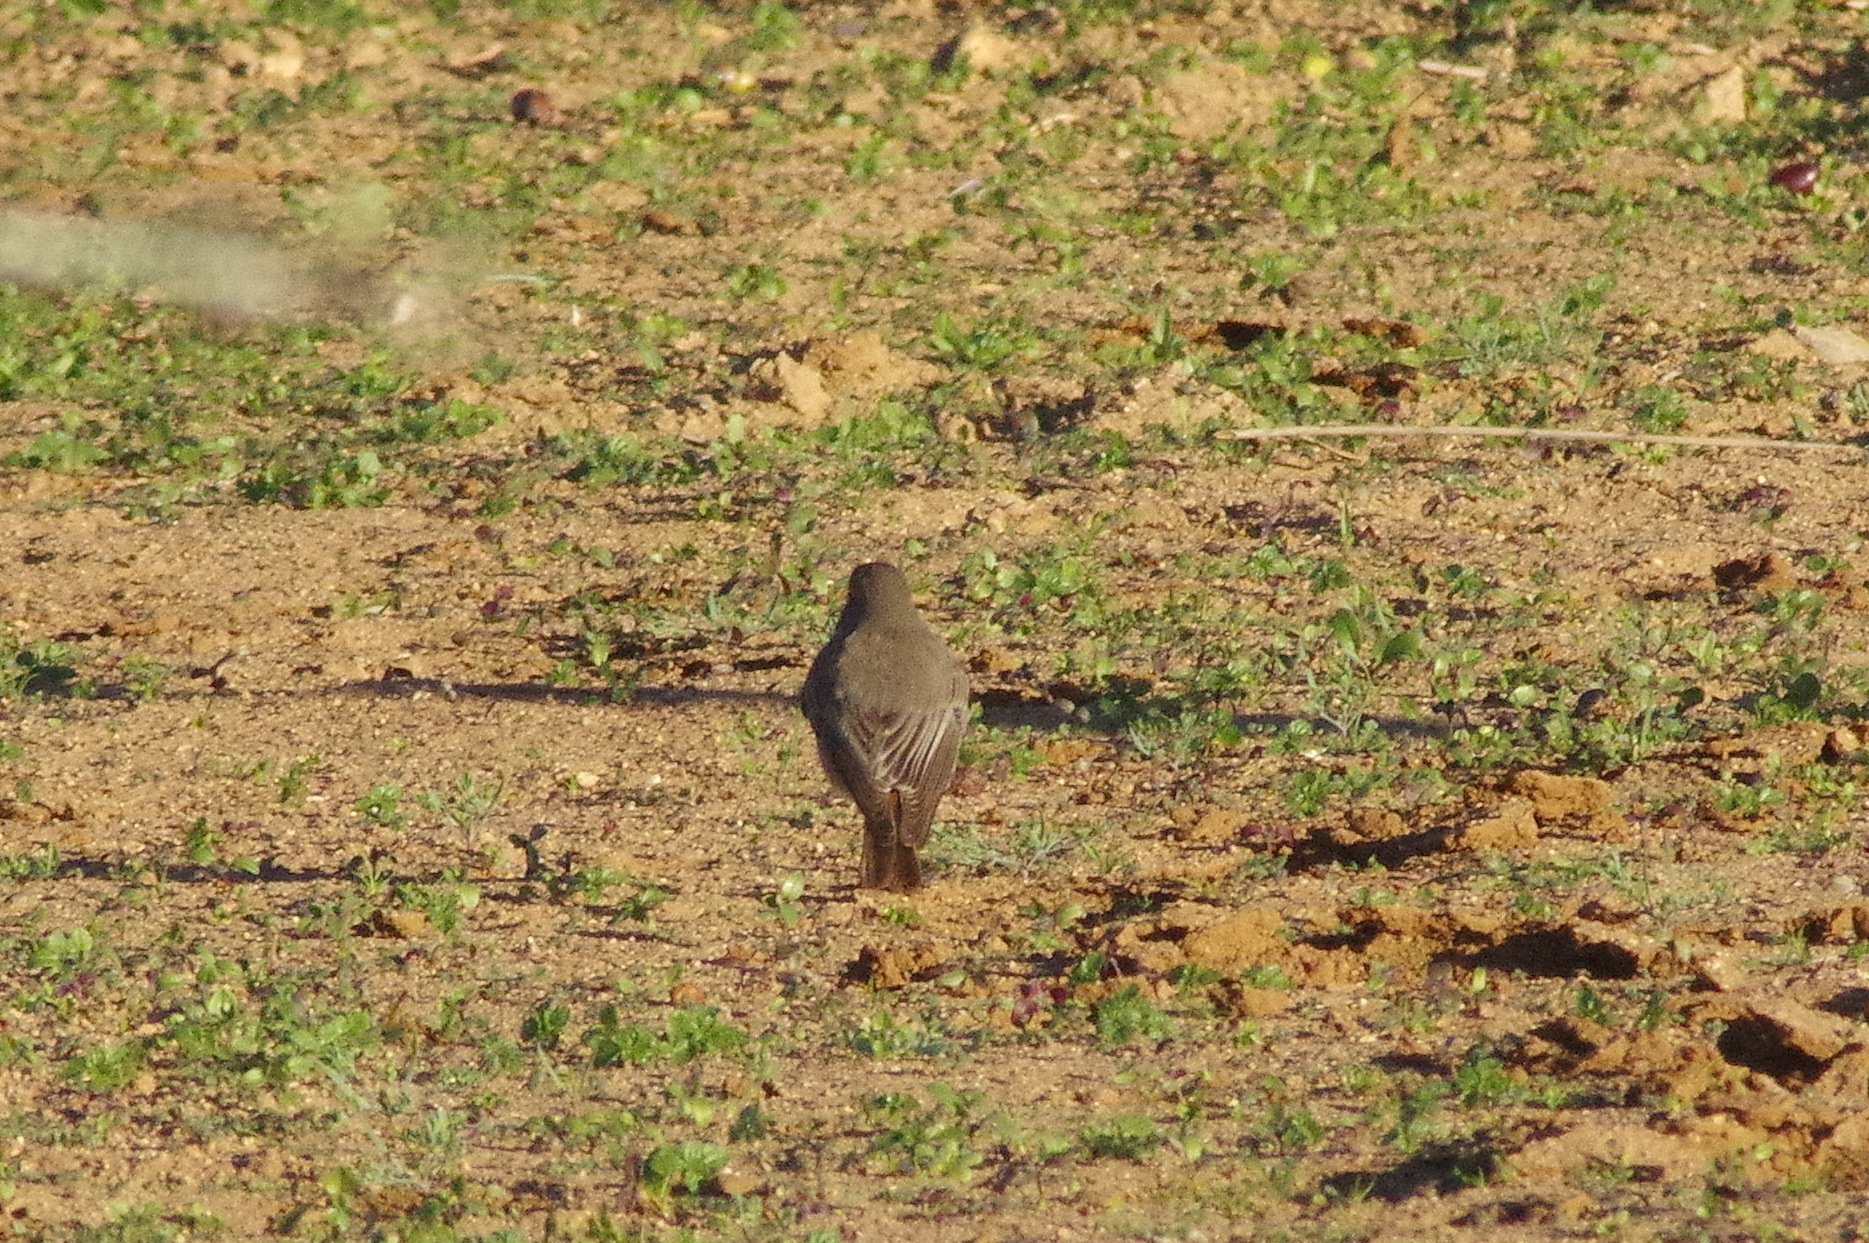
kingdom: Animalia
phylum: Chordata
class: Aves
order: Passeriformes
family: Muscicapidae
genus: Phoenicurus
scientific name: Phoenicurus ochruros
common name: Black redstart
